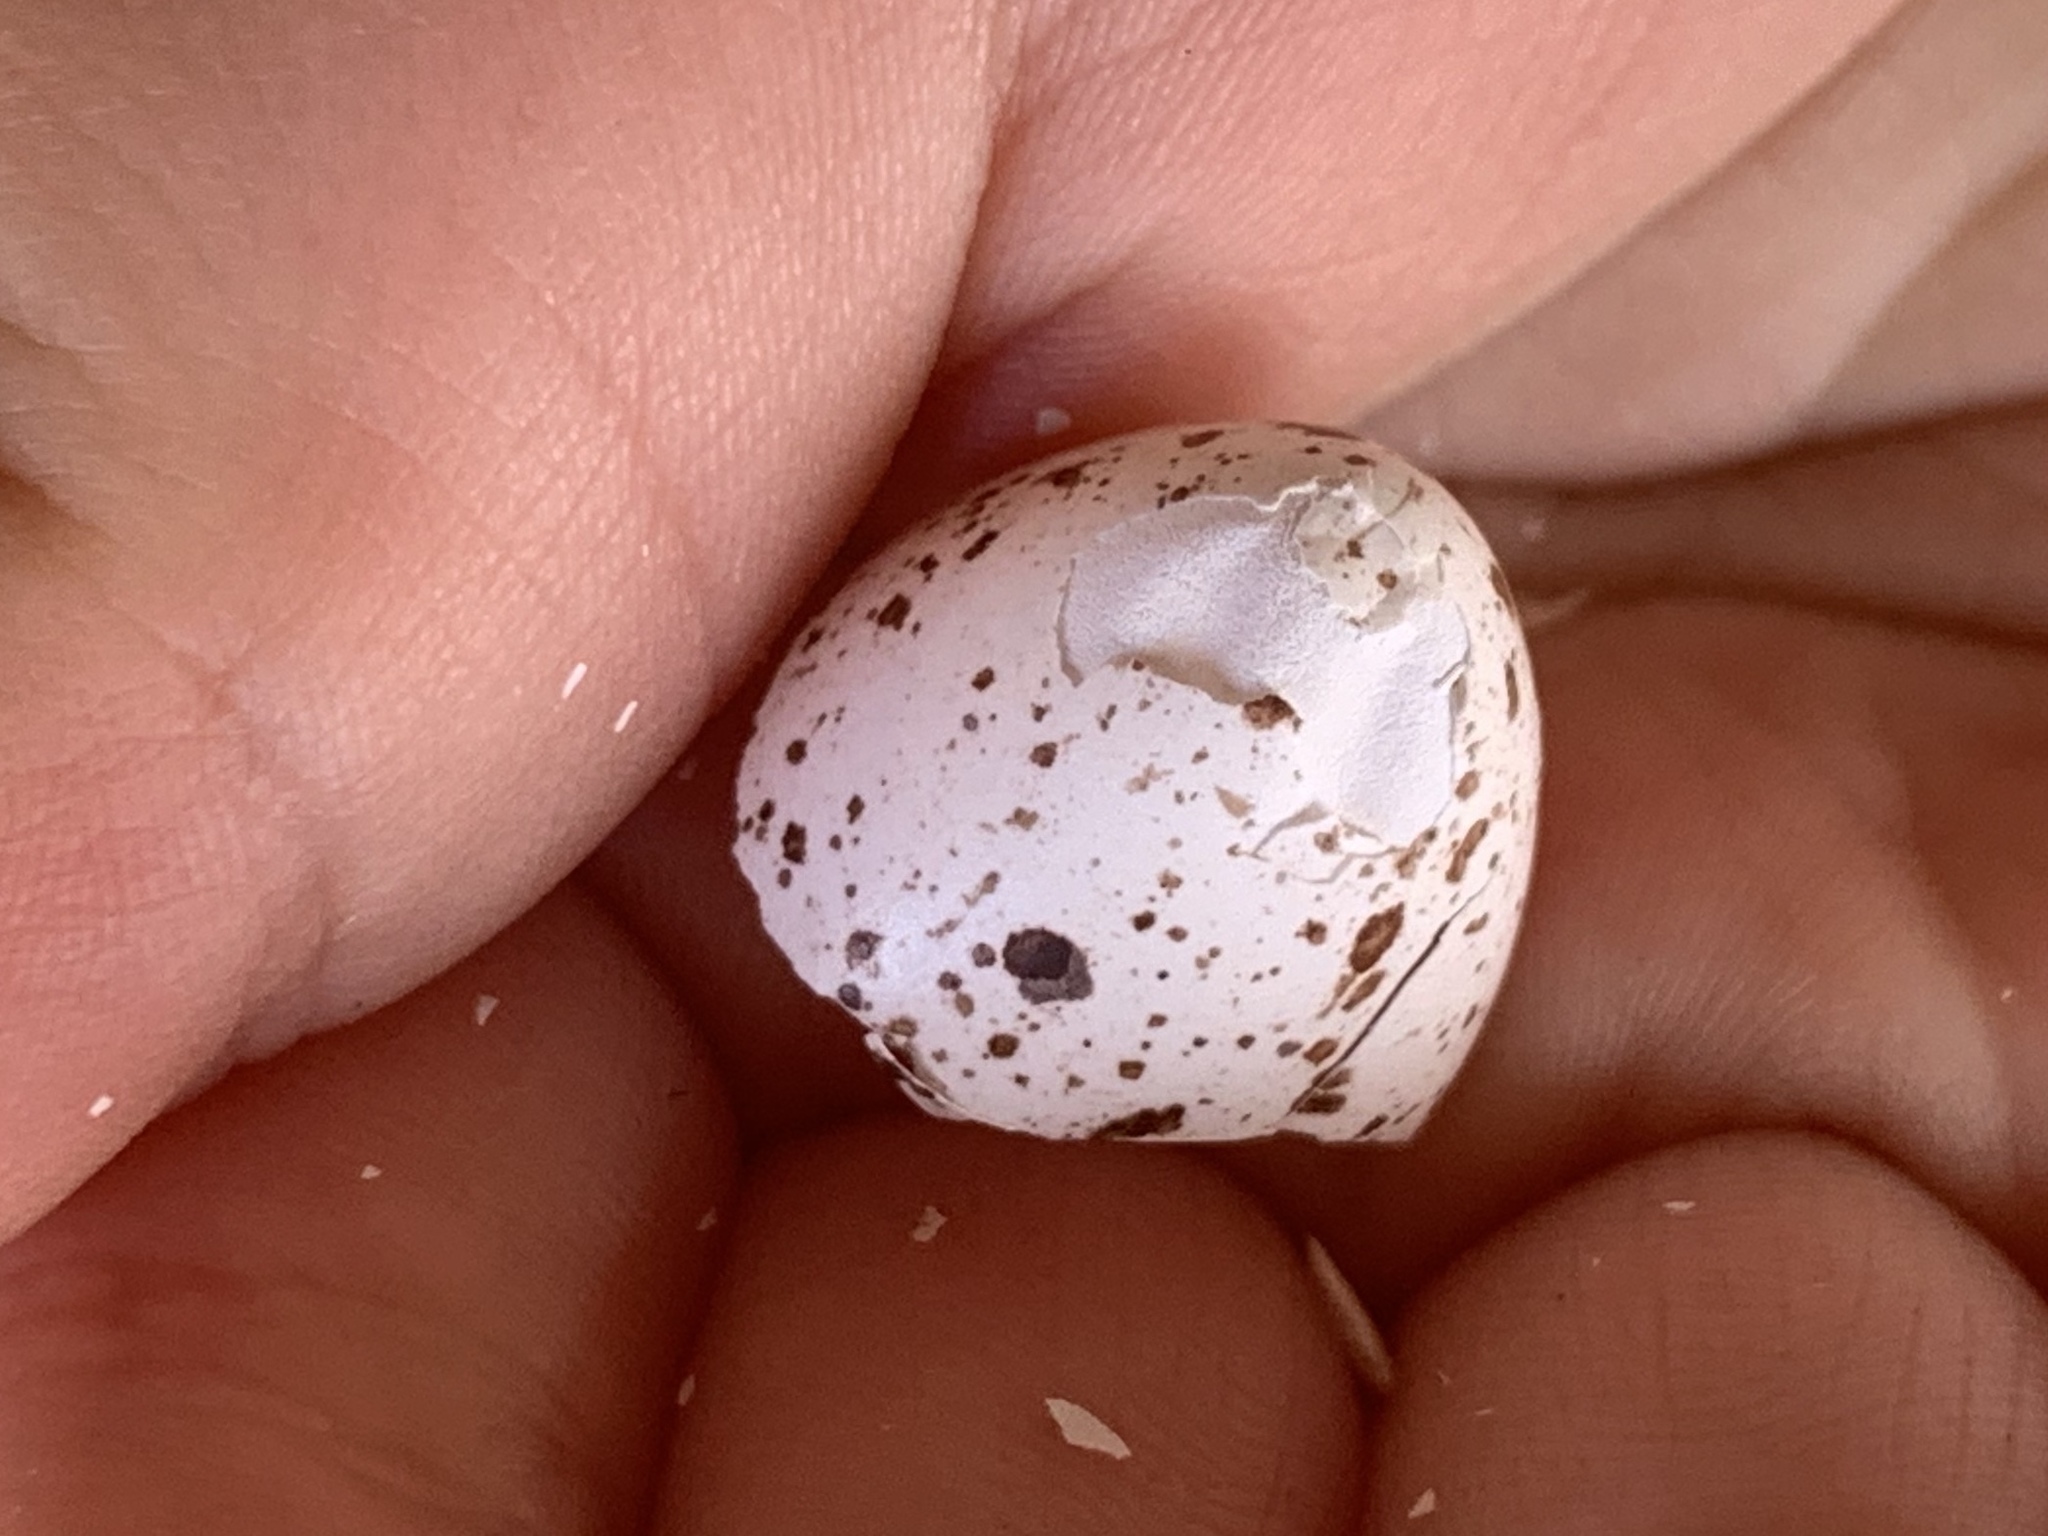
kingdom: Animalia
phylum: Chordata
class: Aves
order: Passeriformes
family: Hirundinidae
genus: Hirundo
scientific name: Hirundo rustica
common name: Barn swallow
